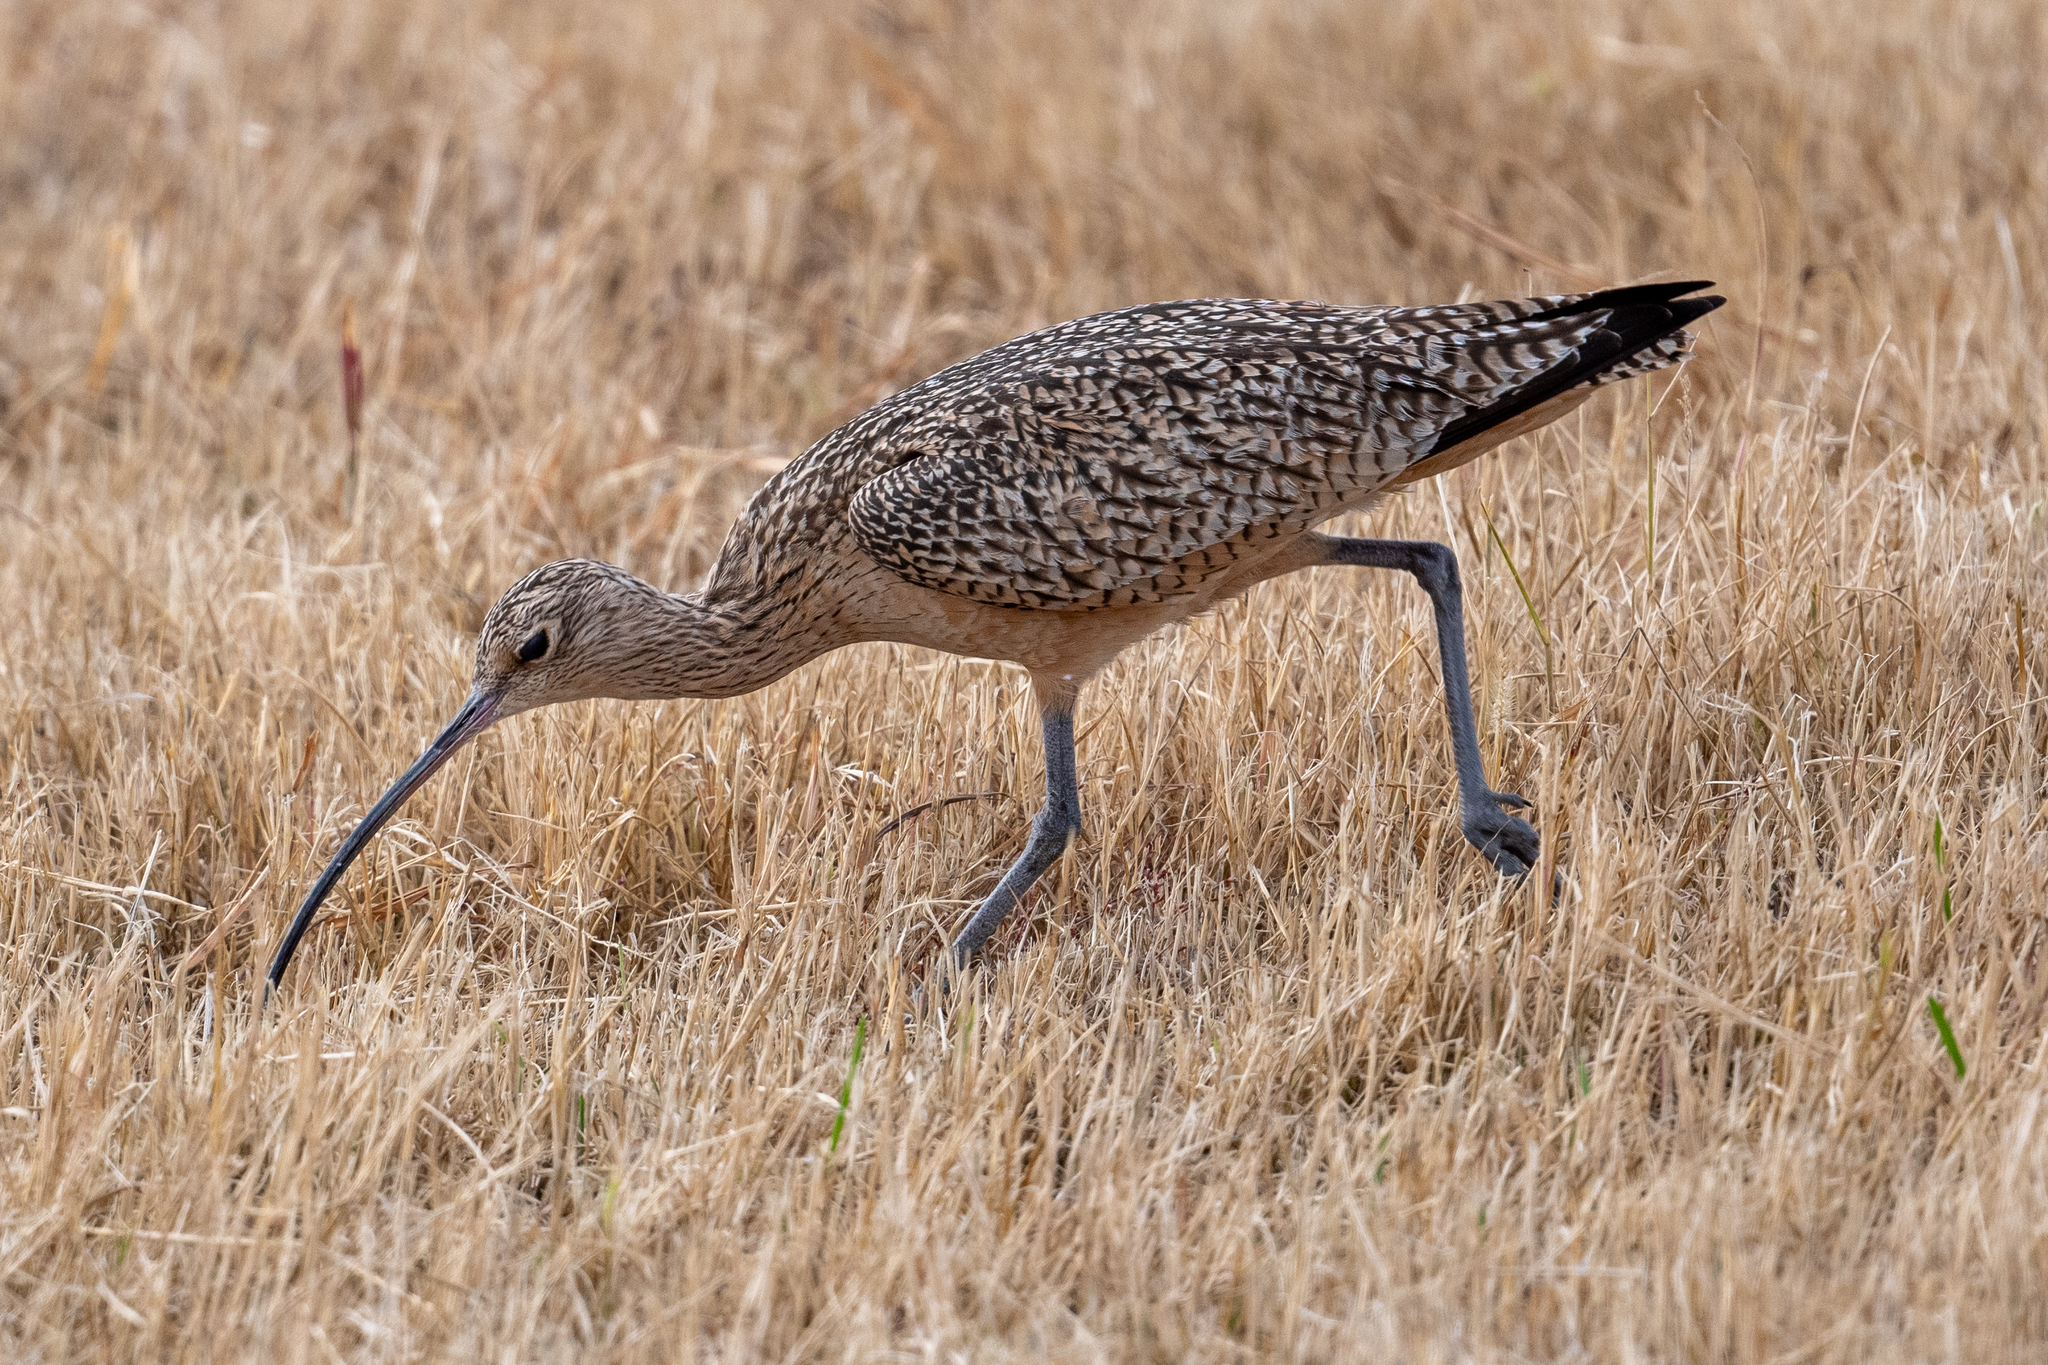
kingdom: Animalia
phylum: Chordata
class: Aves
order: Charadriiformes
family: Scolopacidae
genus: Numenius
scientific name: Numenius americanus
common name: Long-billed curlew
